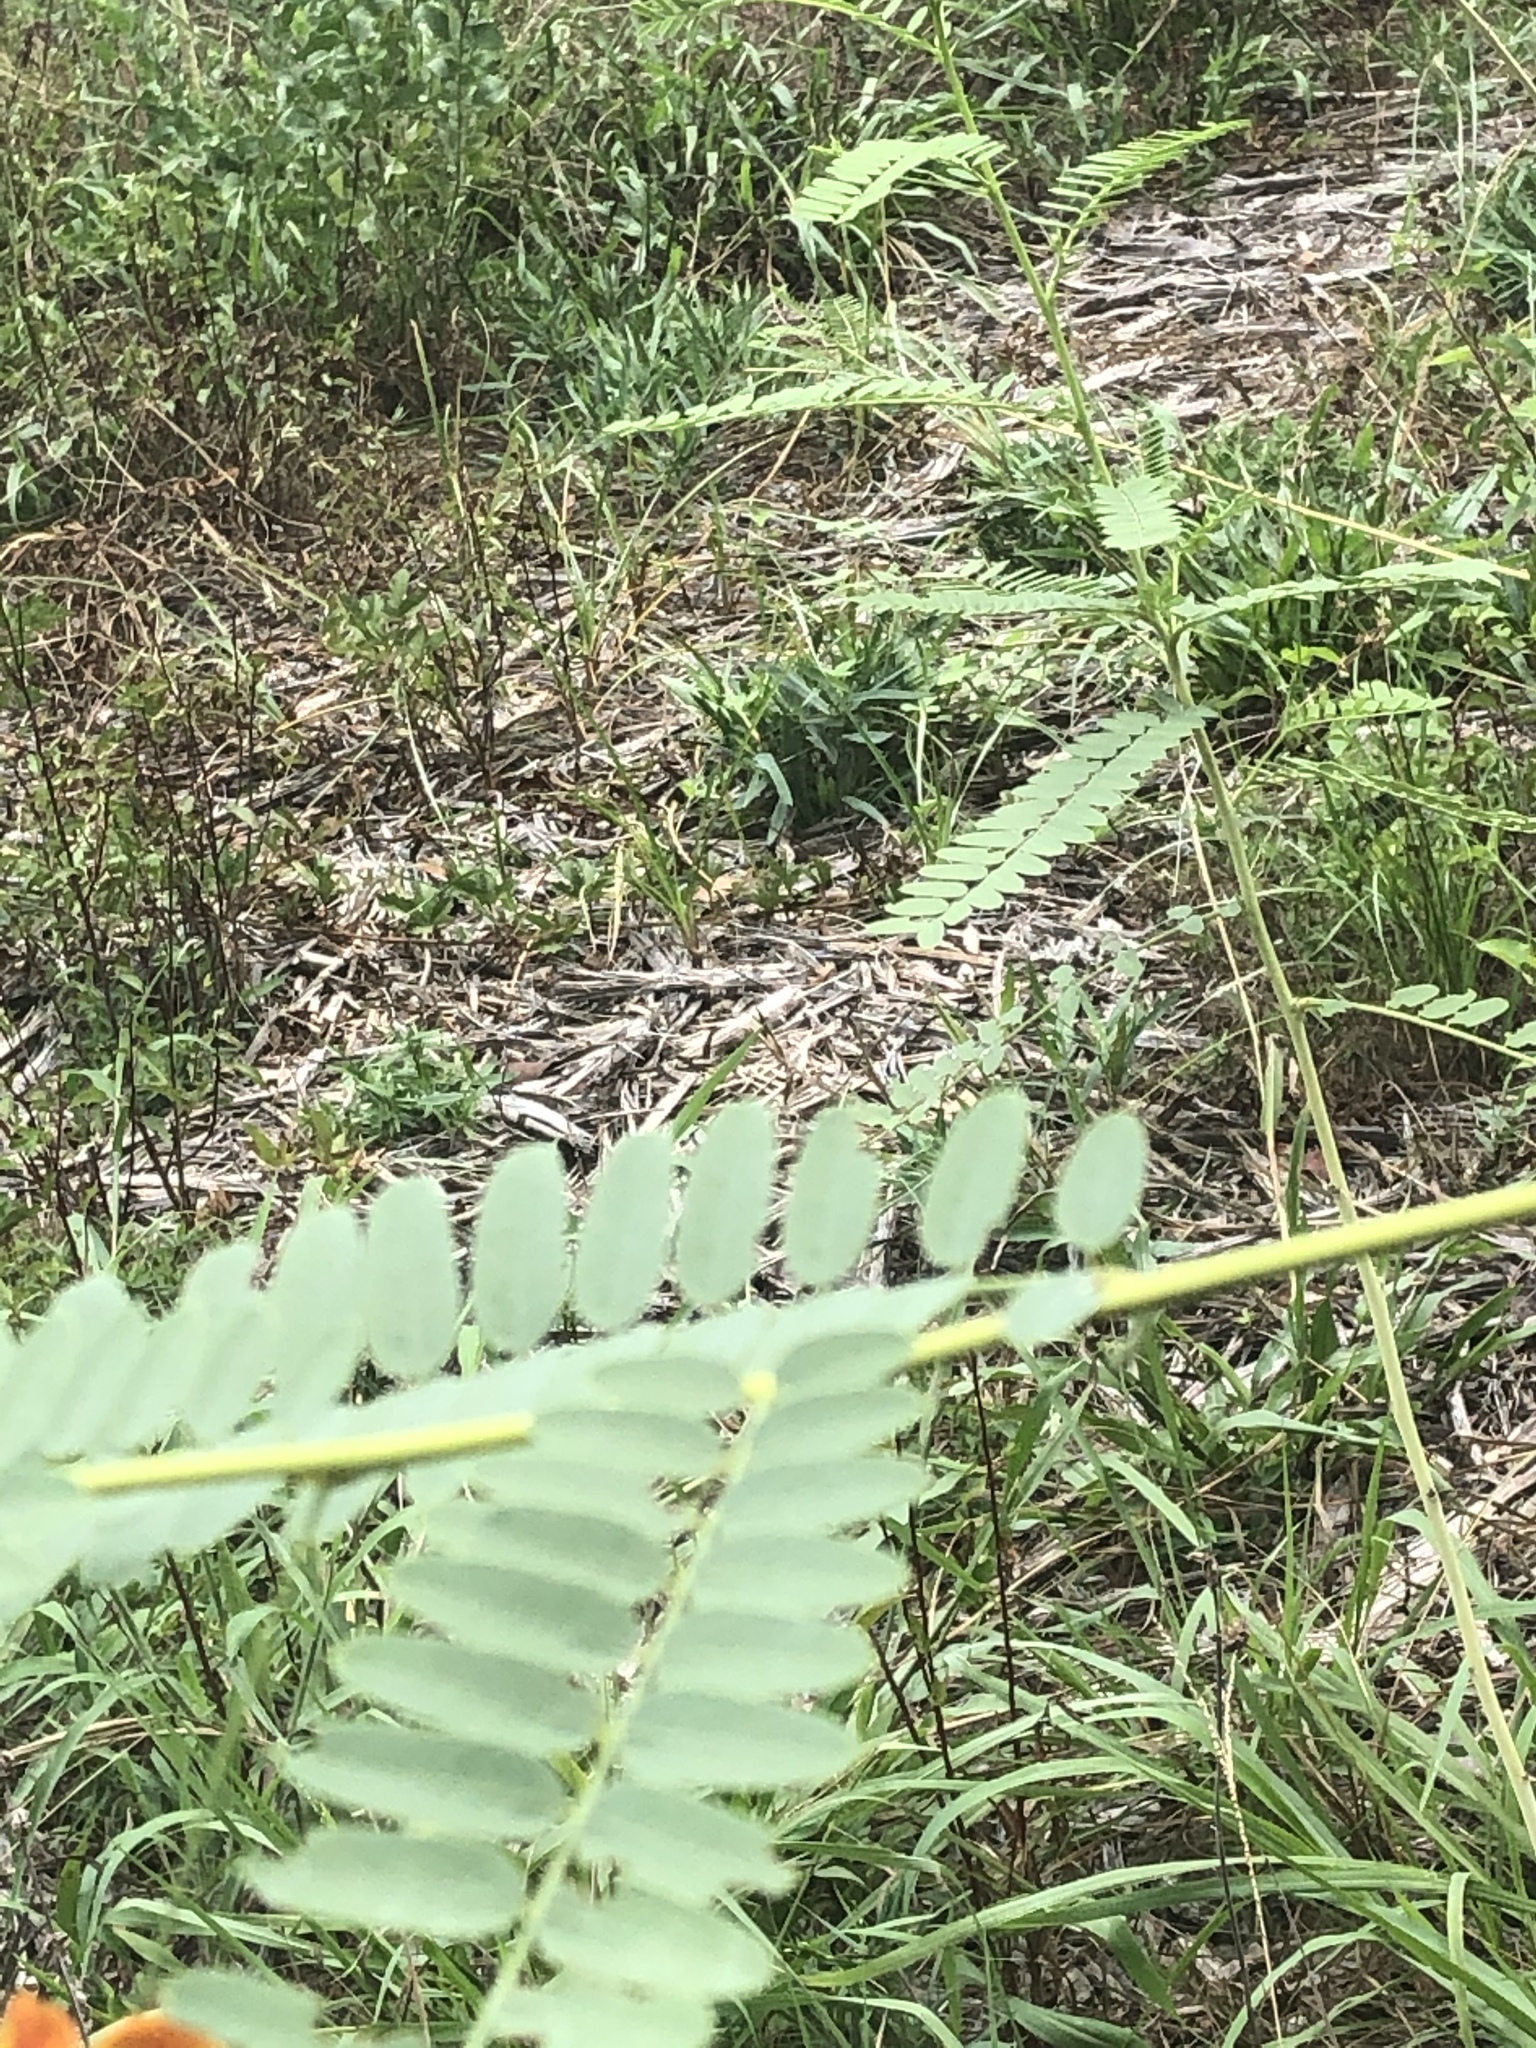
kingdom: Plantae
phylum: Tracheophyta
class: Magnoliopsida
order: Fabales
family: Fabaceae
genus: Sesbania
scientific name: Sesbania vesicaria
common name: Bagpod
